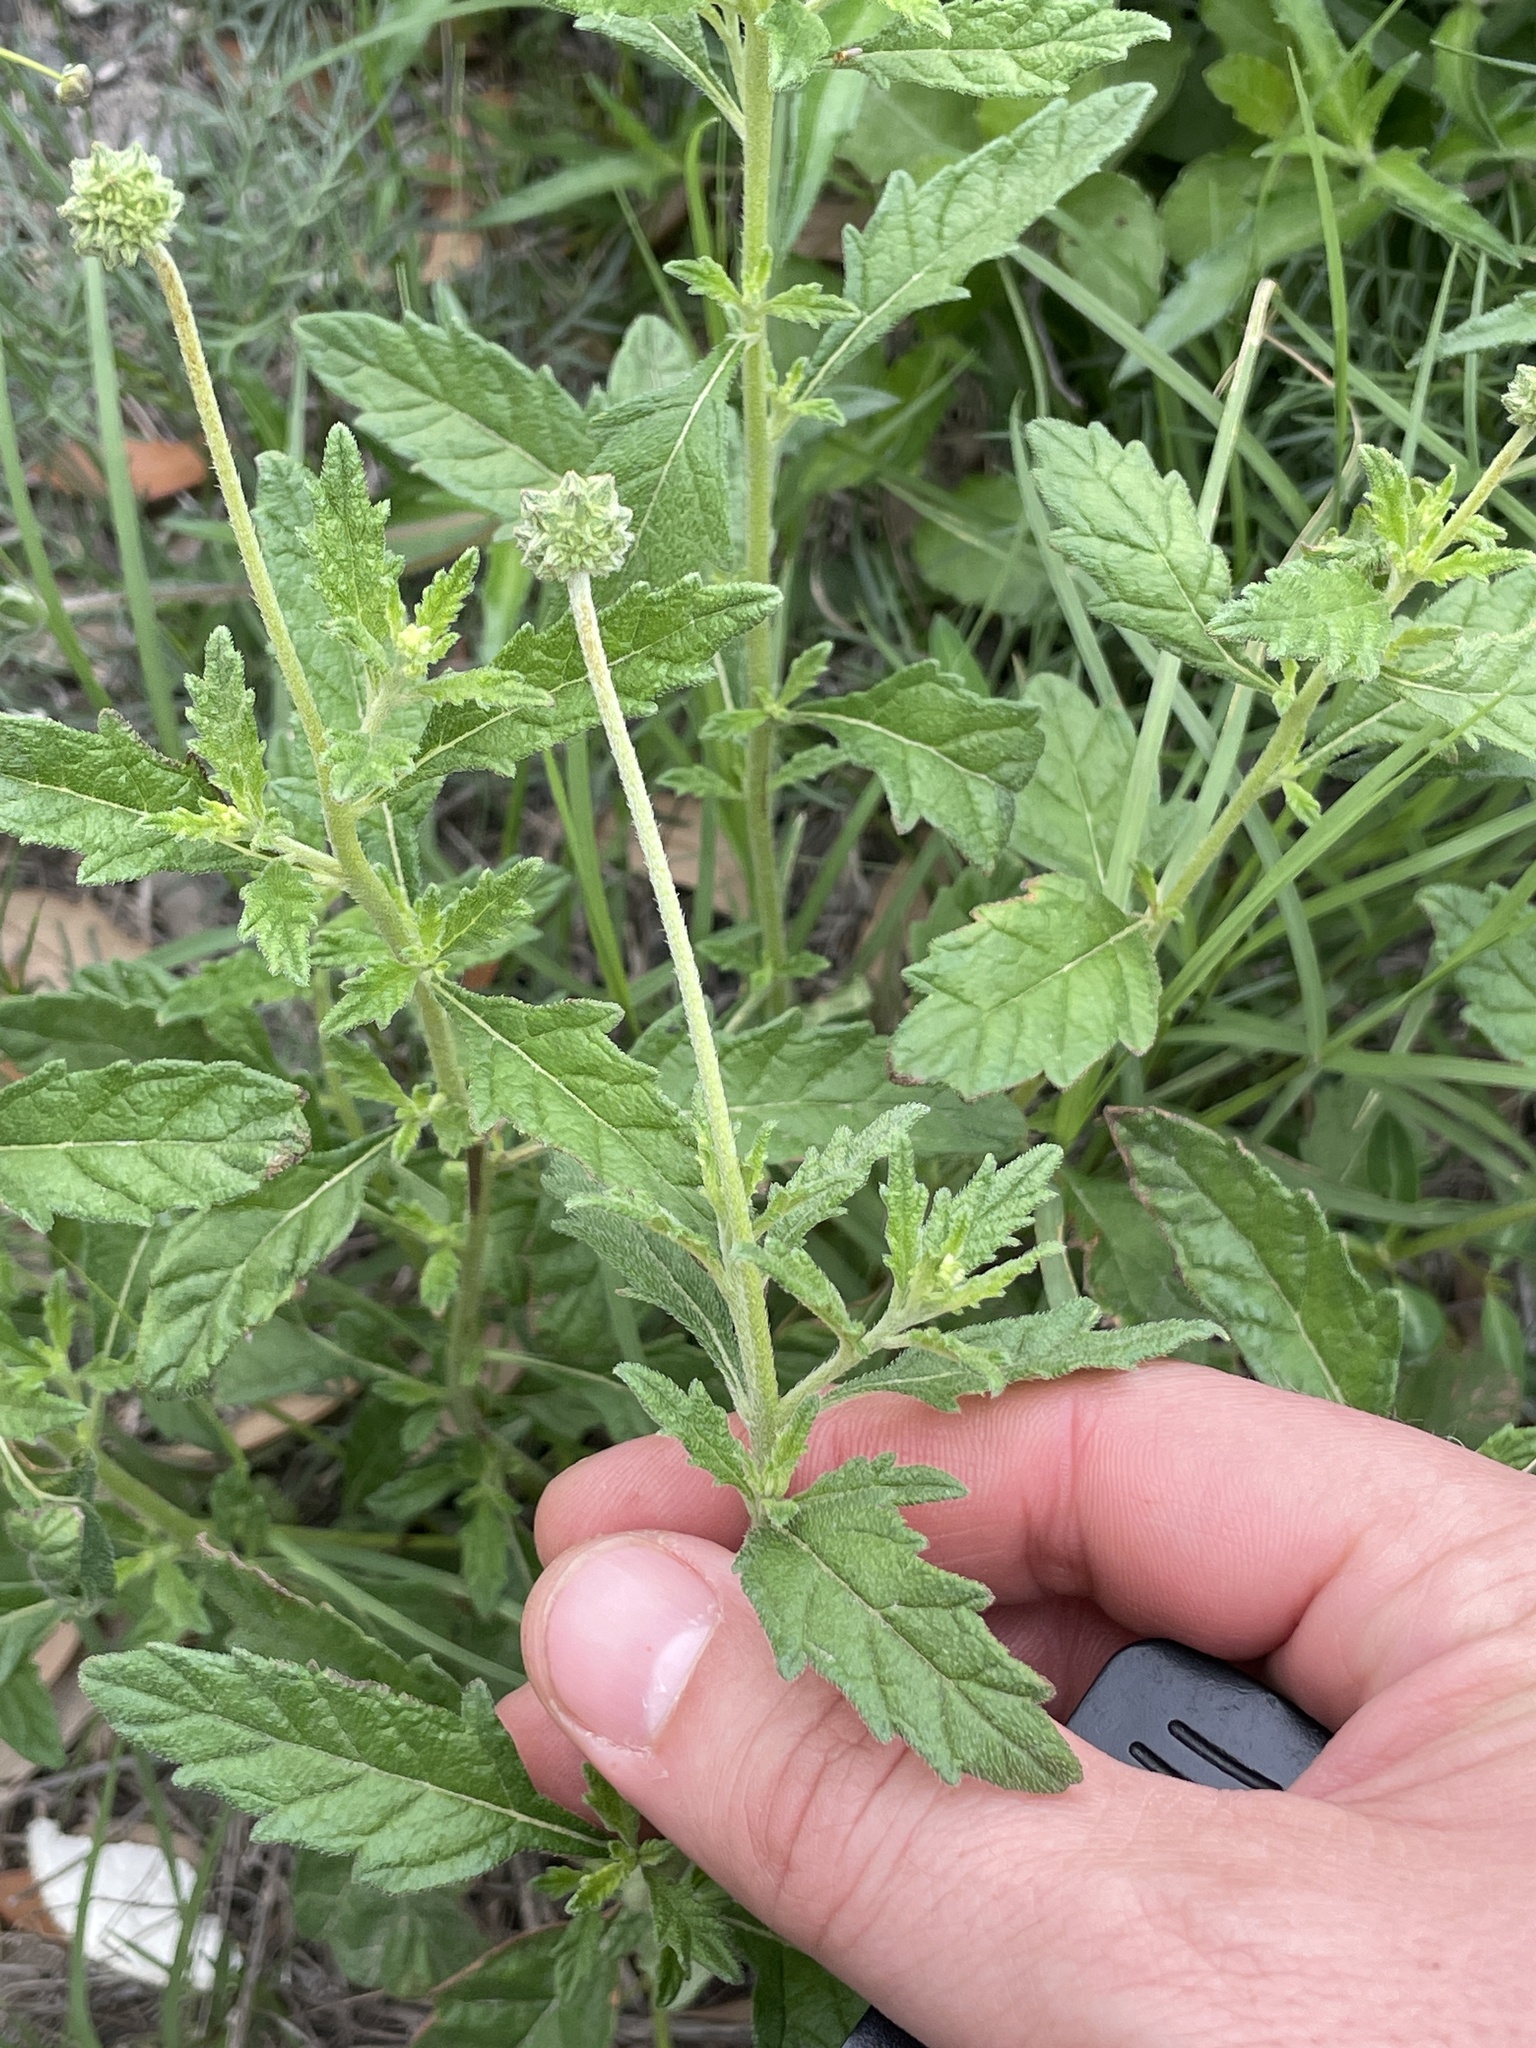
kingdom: Plantae
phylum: Tracheophyta
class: Magnoliopsida
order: Boraginales
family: Cordiaceae
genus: Varronia
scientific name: Varronia podocephala
